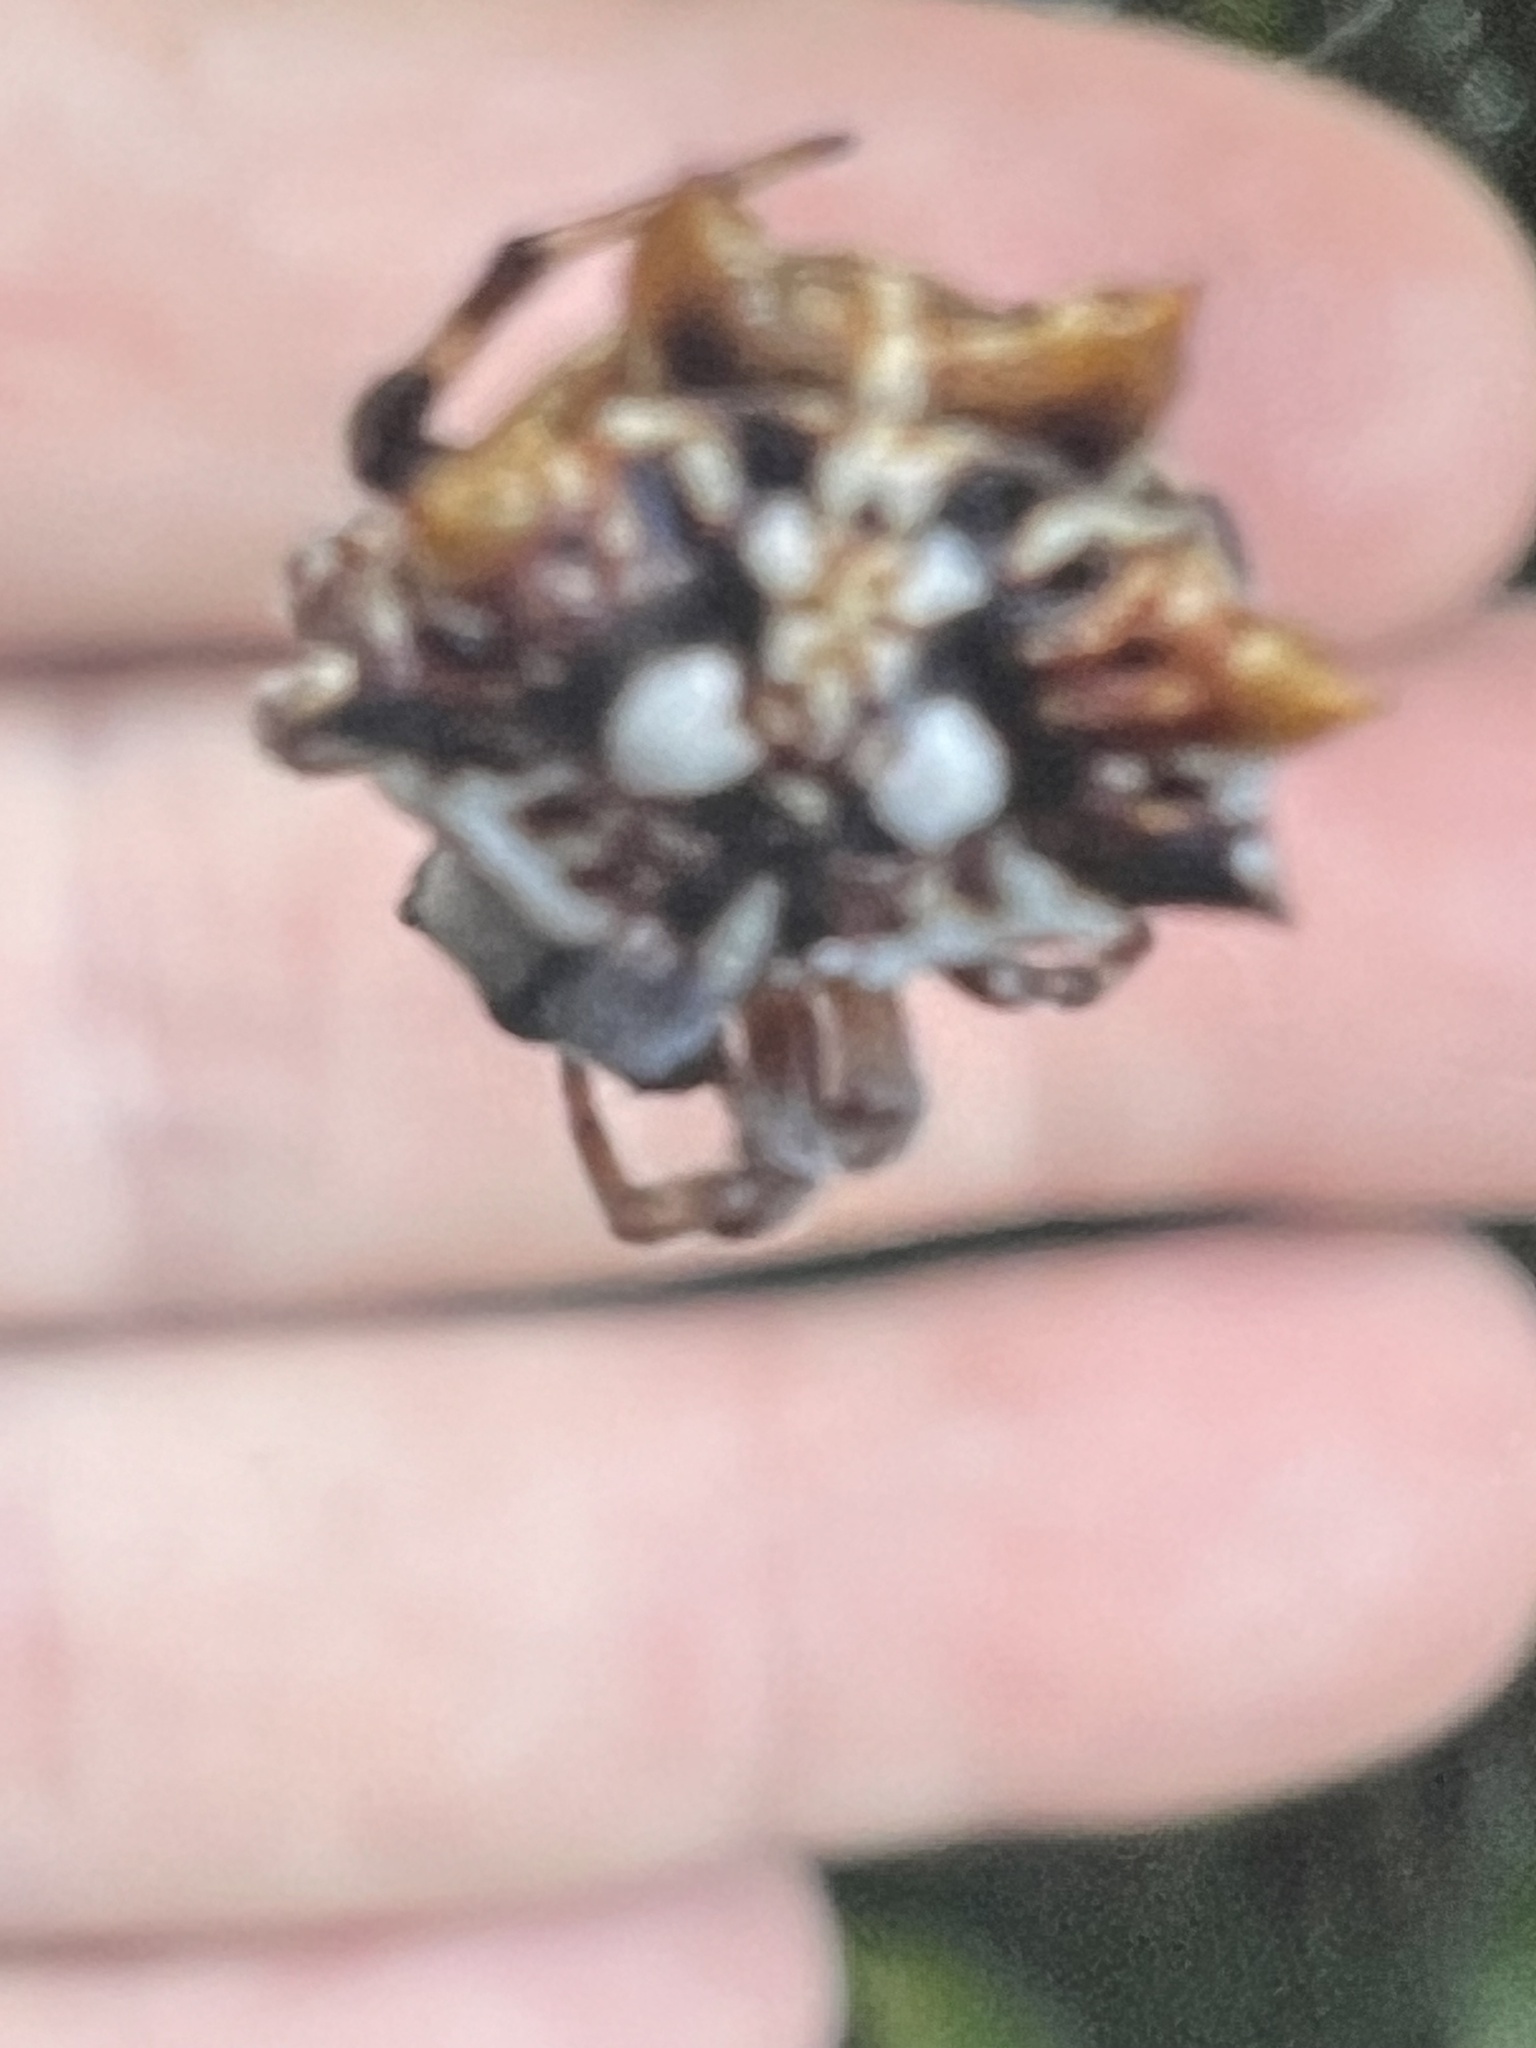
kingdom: Animalia
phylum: Arthropoda
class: Arachnida
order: Araneae
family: Araneidae
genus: Thelacantha
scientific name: Thelacantha brevispina
